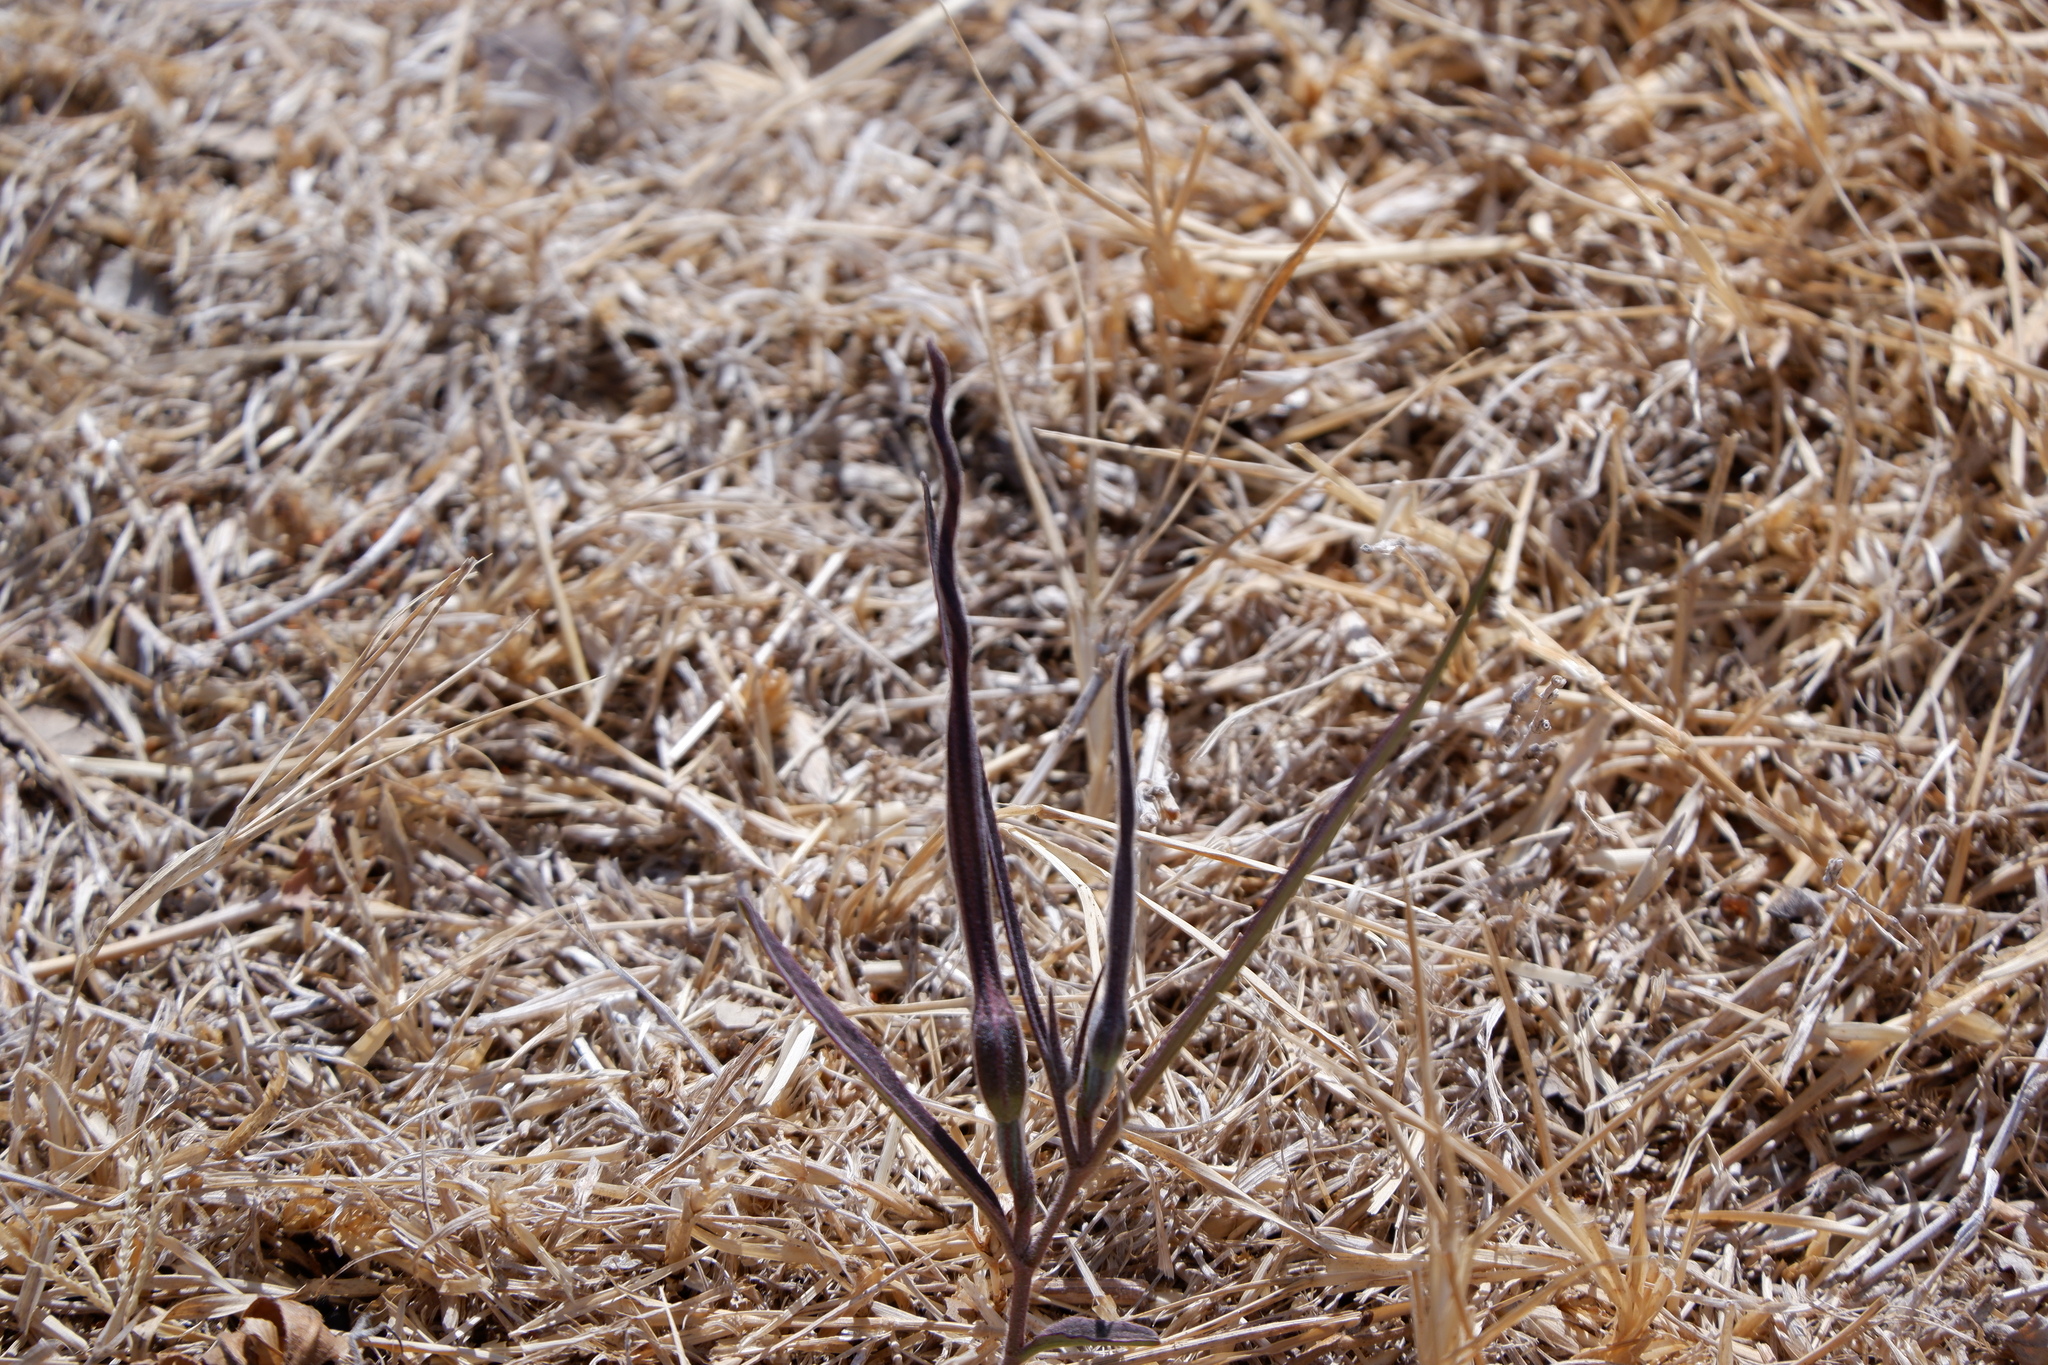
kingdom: Plantae
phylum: Tracheophyta
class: Magnoliopsida
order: Piperales
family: Aristolochiaceae
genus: Aristolochia
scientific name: Aristolochia erecta
